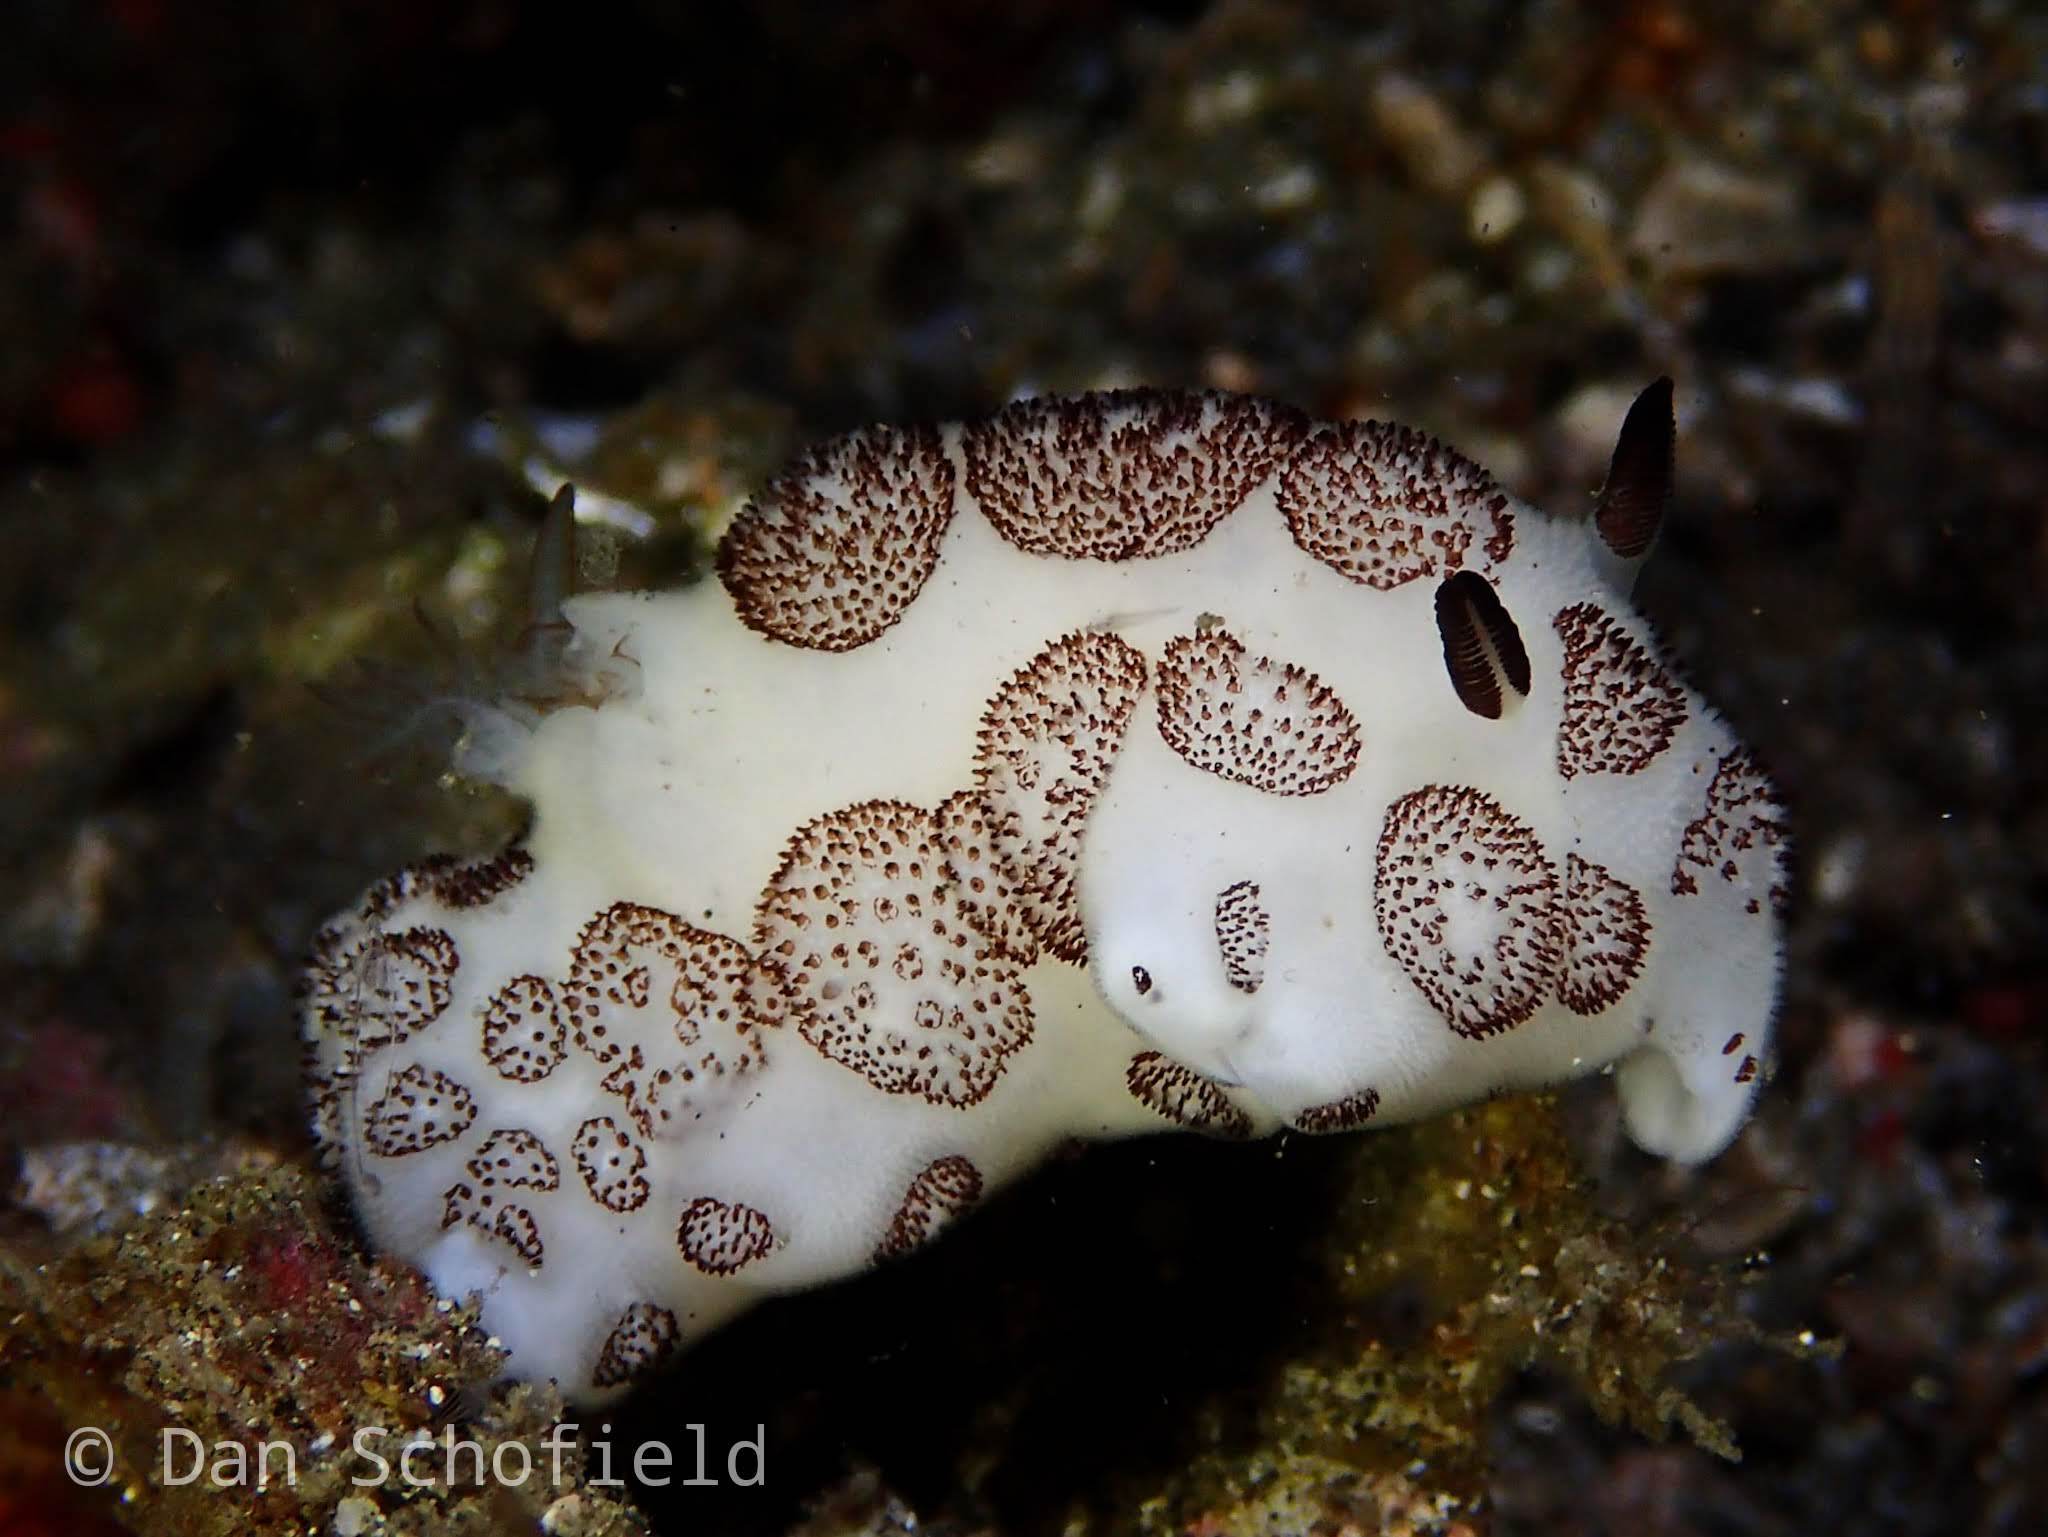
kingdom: Animalia
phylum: Mollusca
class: Gastropoda
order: Nudibranchia
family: Discodorididae
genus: Jorunna
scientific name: Jorunna funebris
